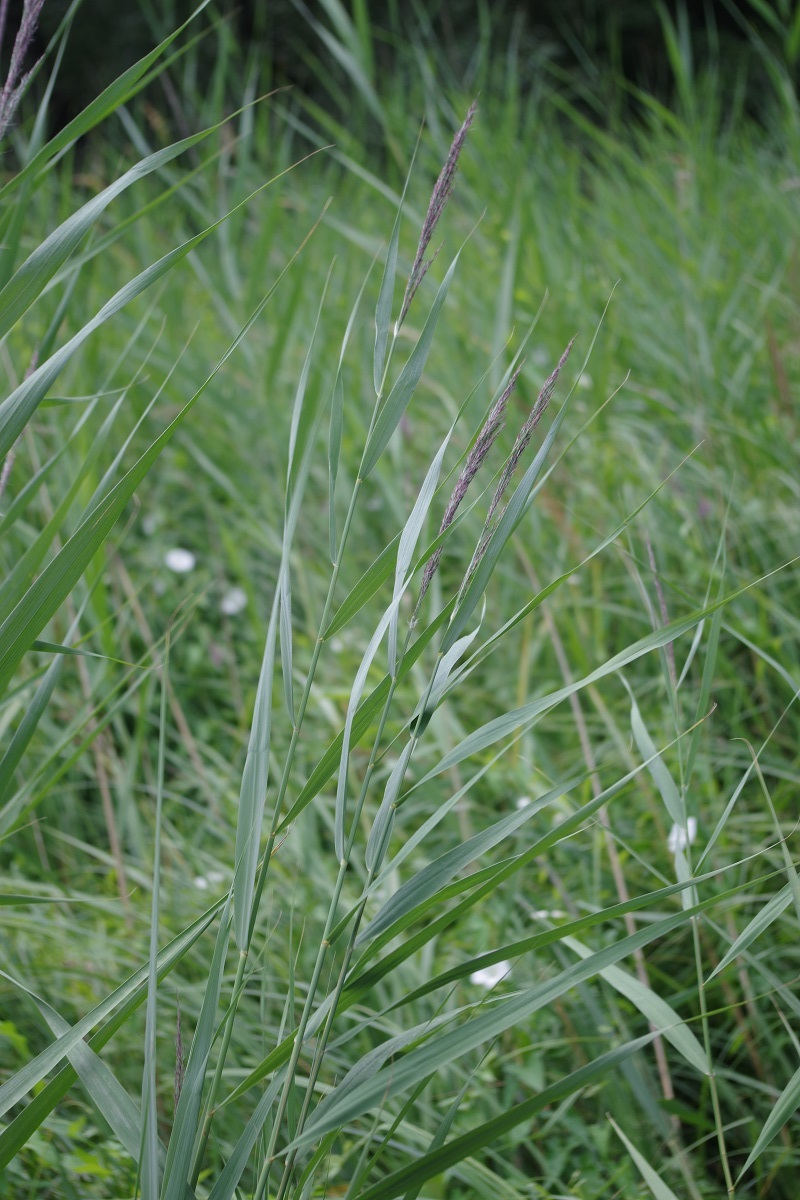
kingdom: Plantae
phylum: Tracheophyta
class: Liliopsida
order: Poales
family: Poaceae
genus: Phragmites
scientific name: Phragmites australis
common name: Common reed
